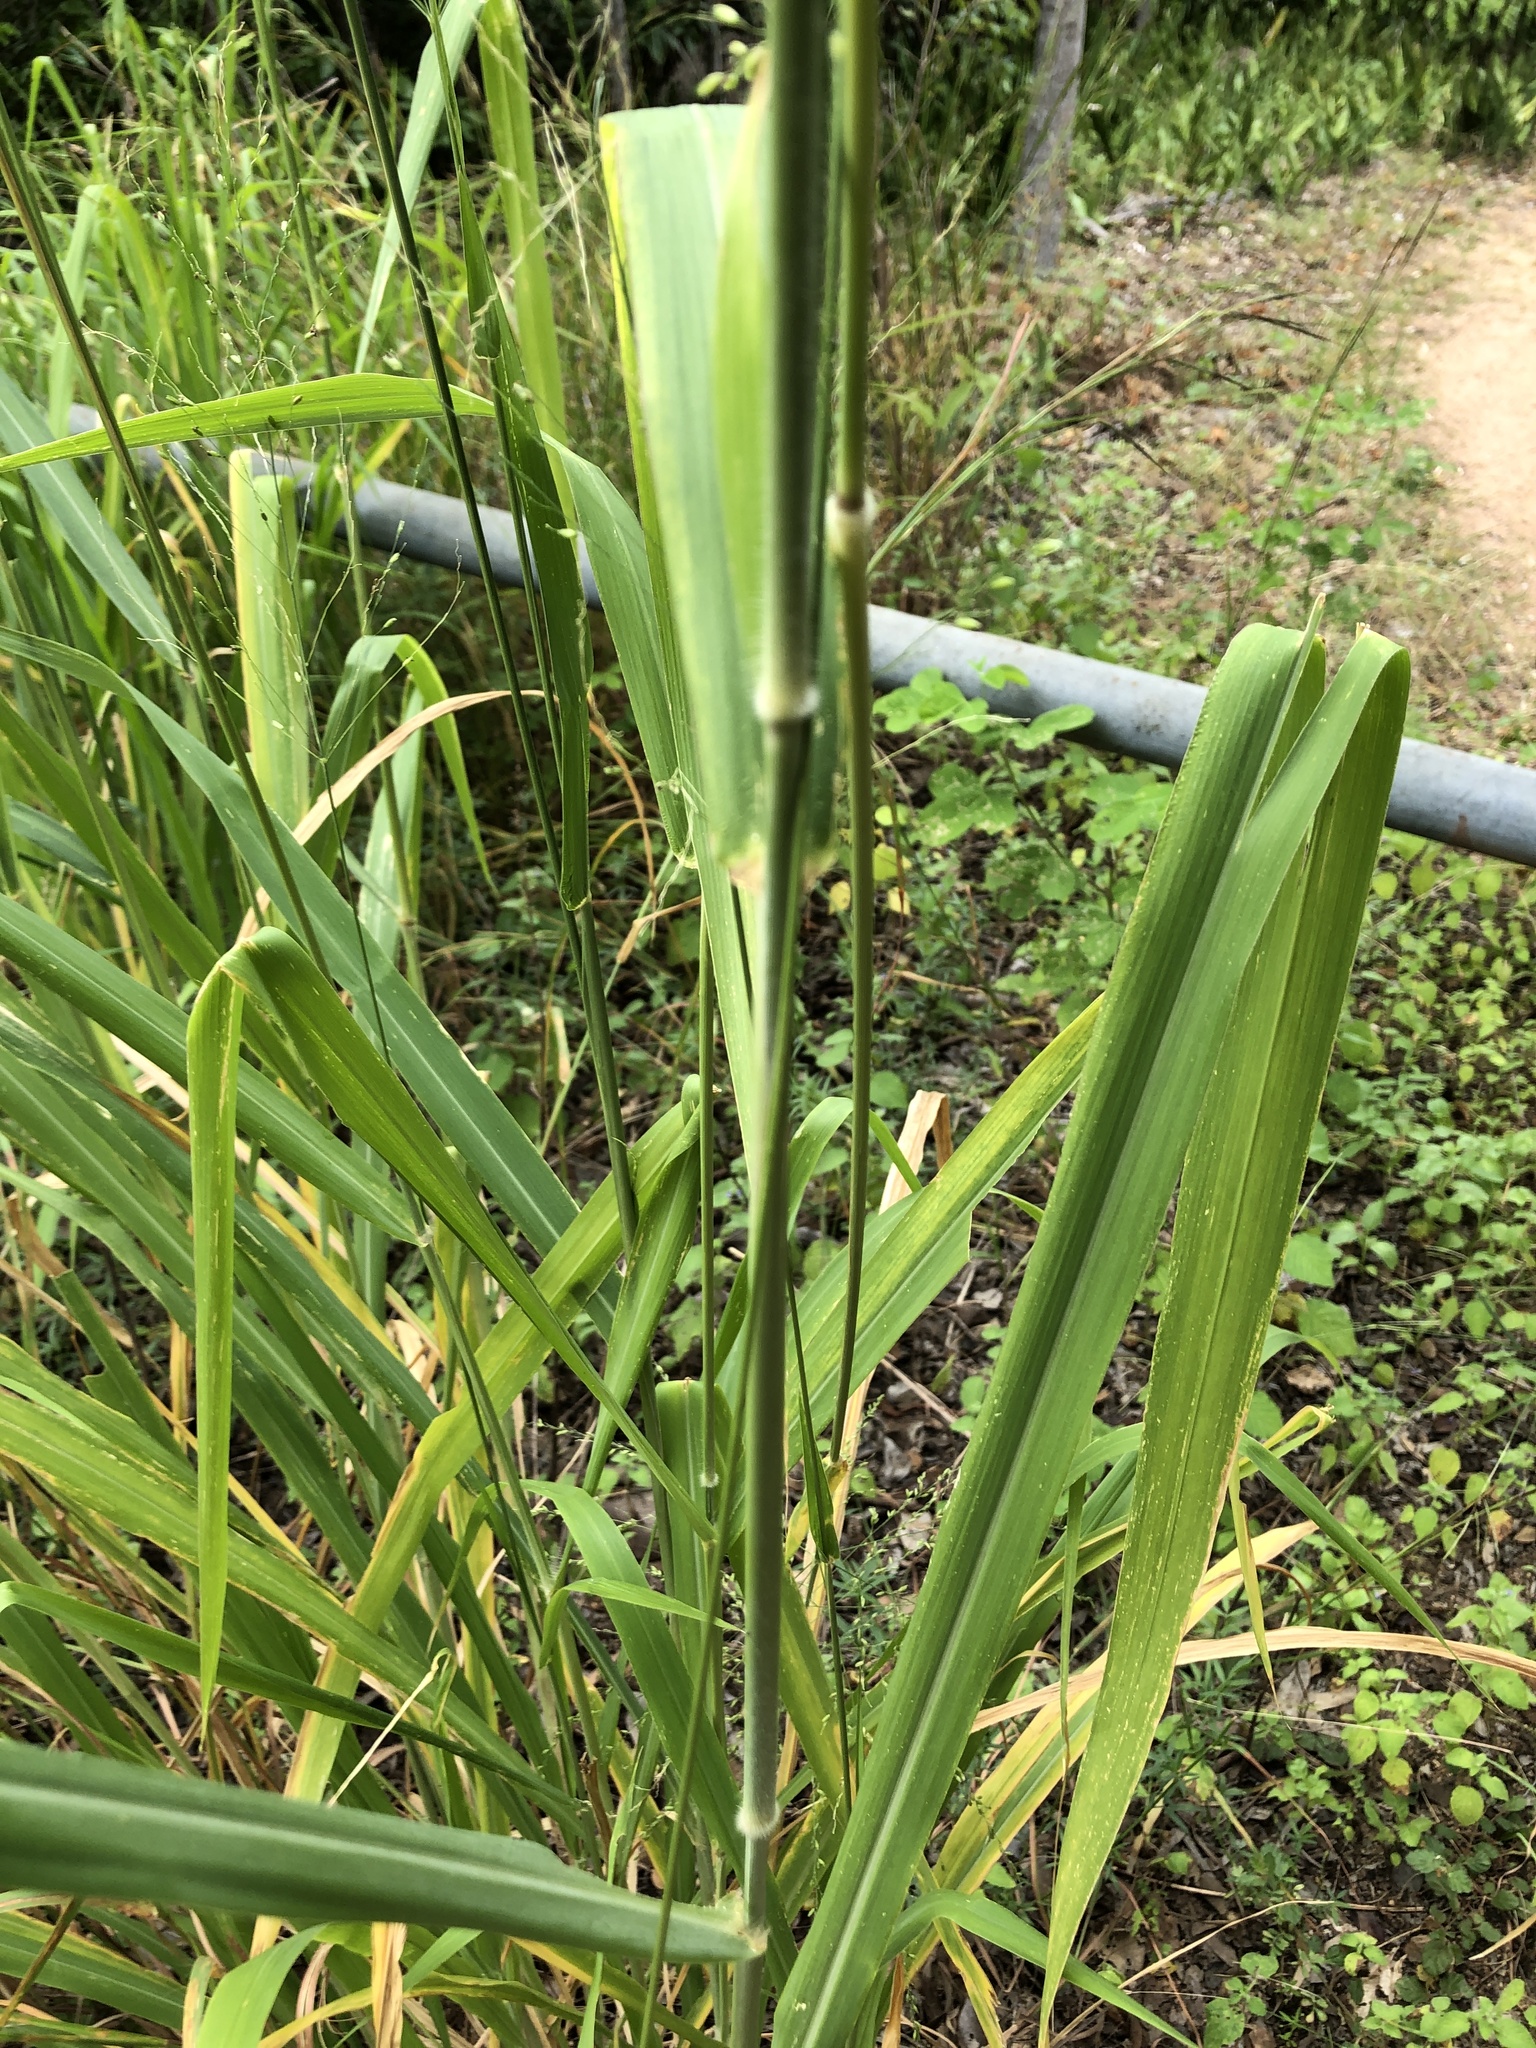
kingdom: Plantae
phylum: Tracheophyta
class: Liliopsida
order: Poales
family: Poaceae
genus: Megathyrsus
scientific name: Megathyrsus maximus
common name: Guineagrass
